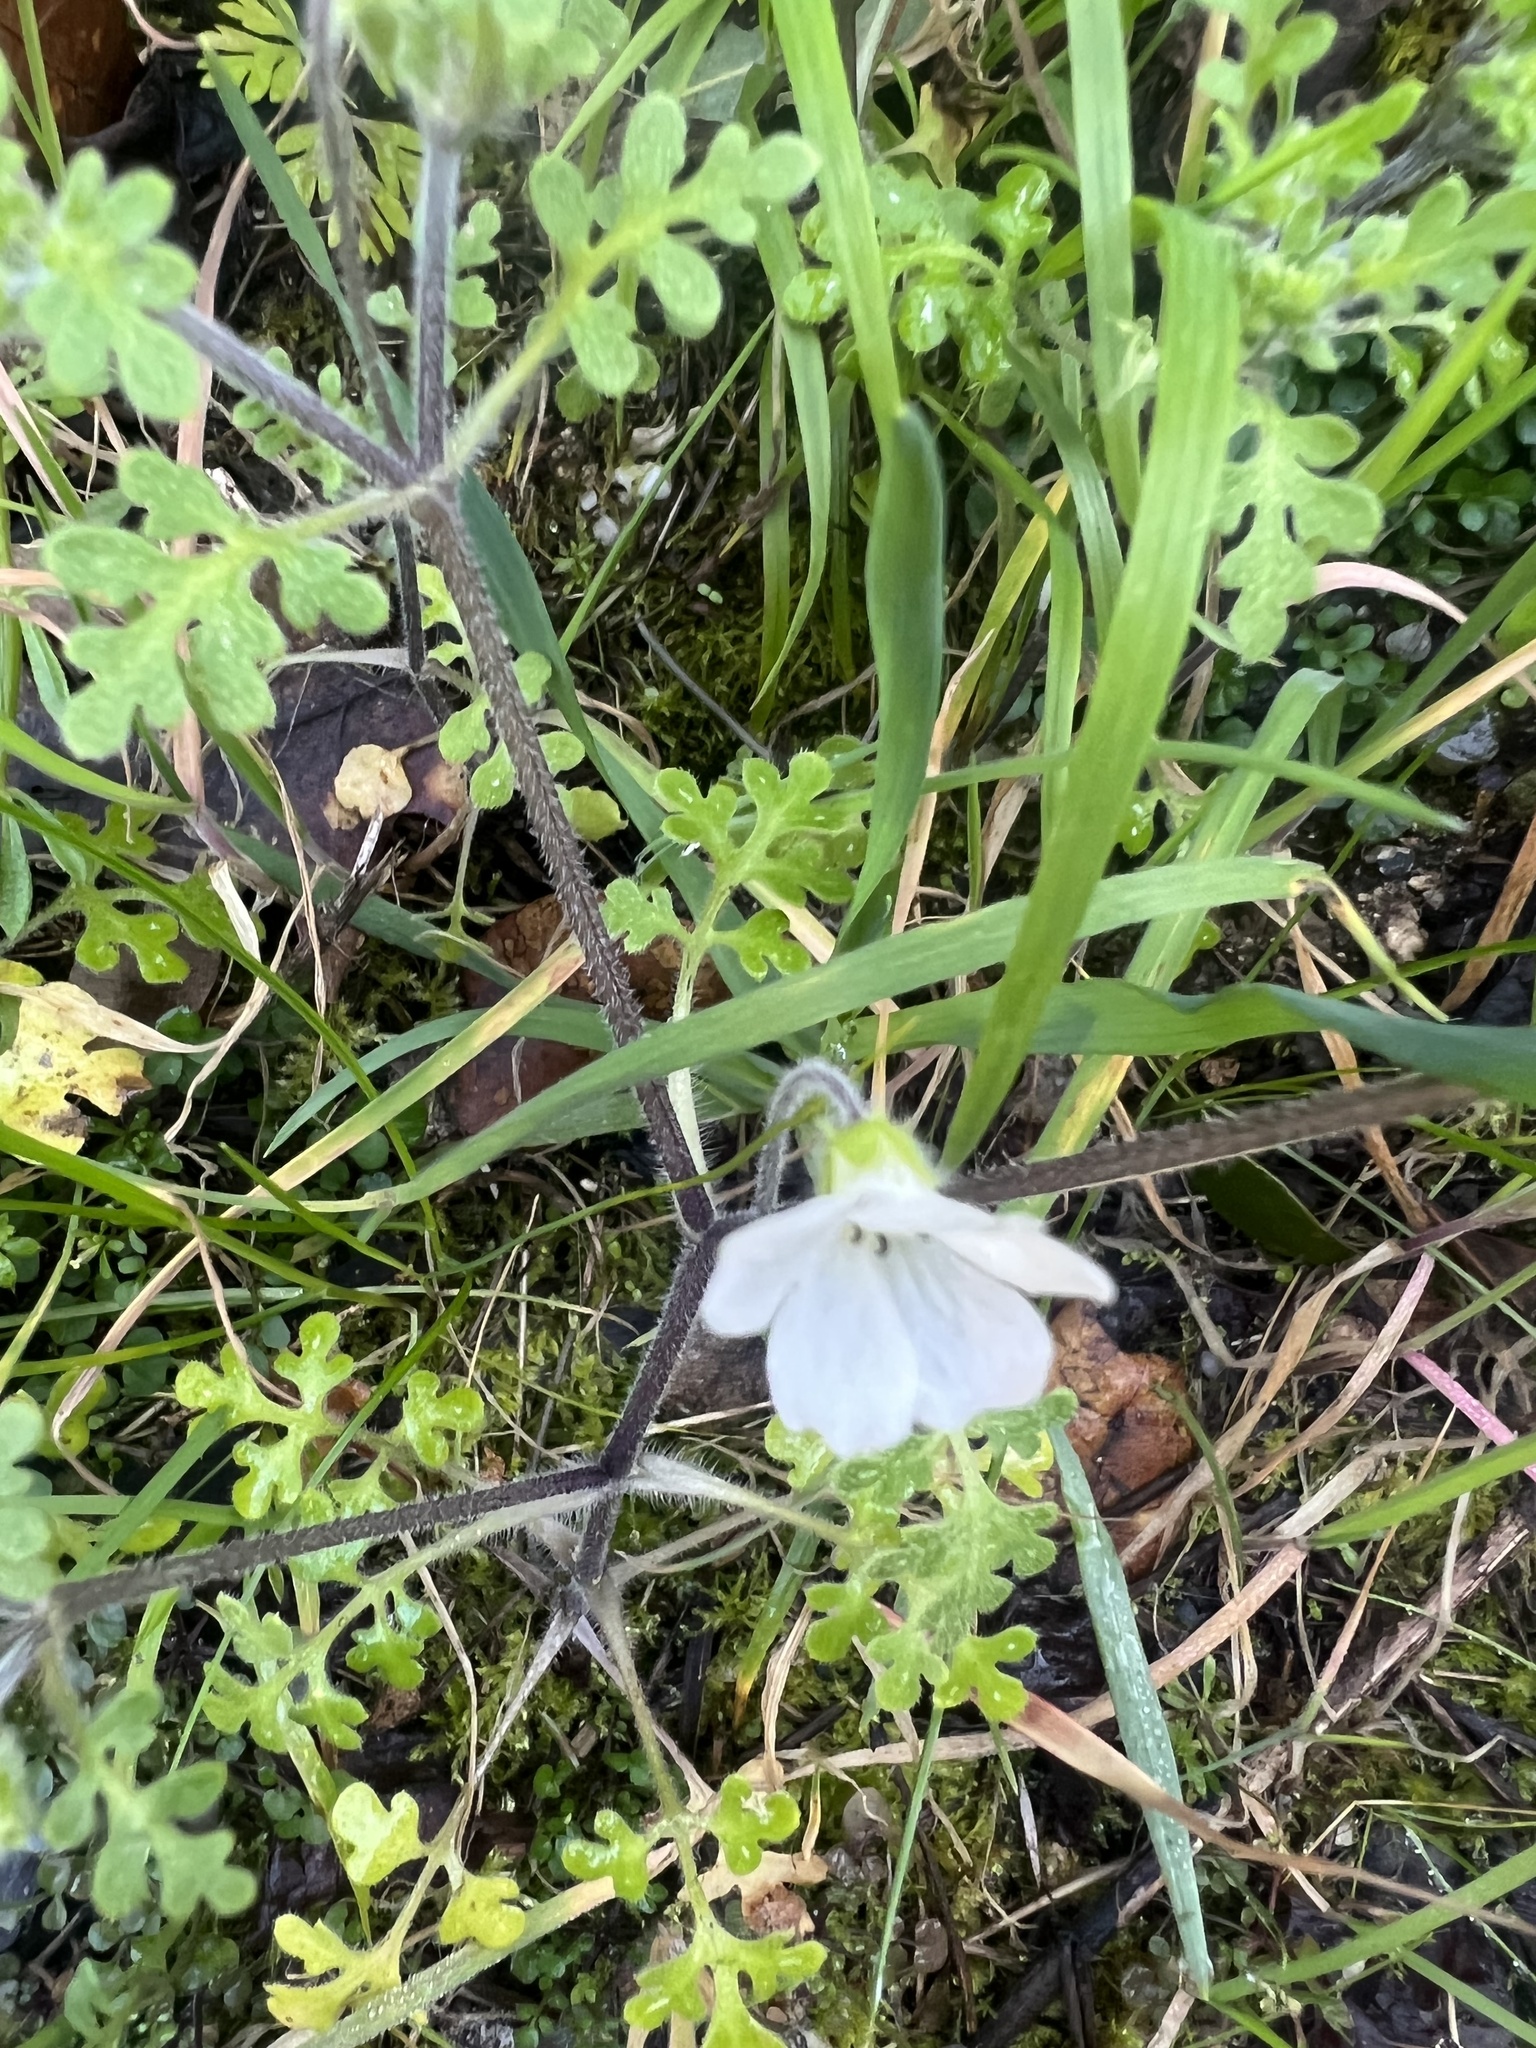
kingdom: Plantae
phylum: Tracheophyta
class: Magnoliopsida
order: Boraginales
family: Hydrophyllaceae
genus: Nemophila
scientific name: Nemophila heterophylla
